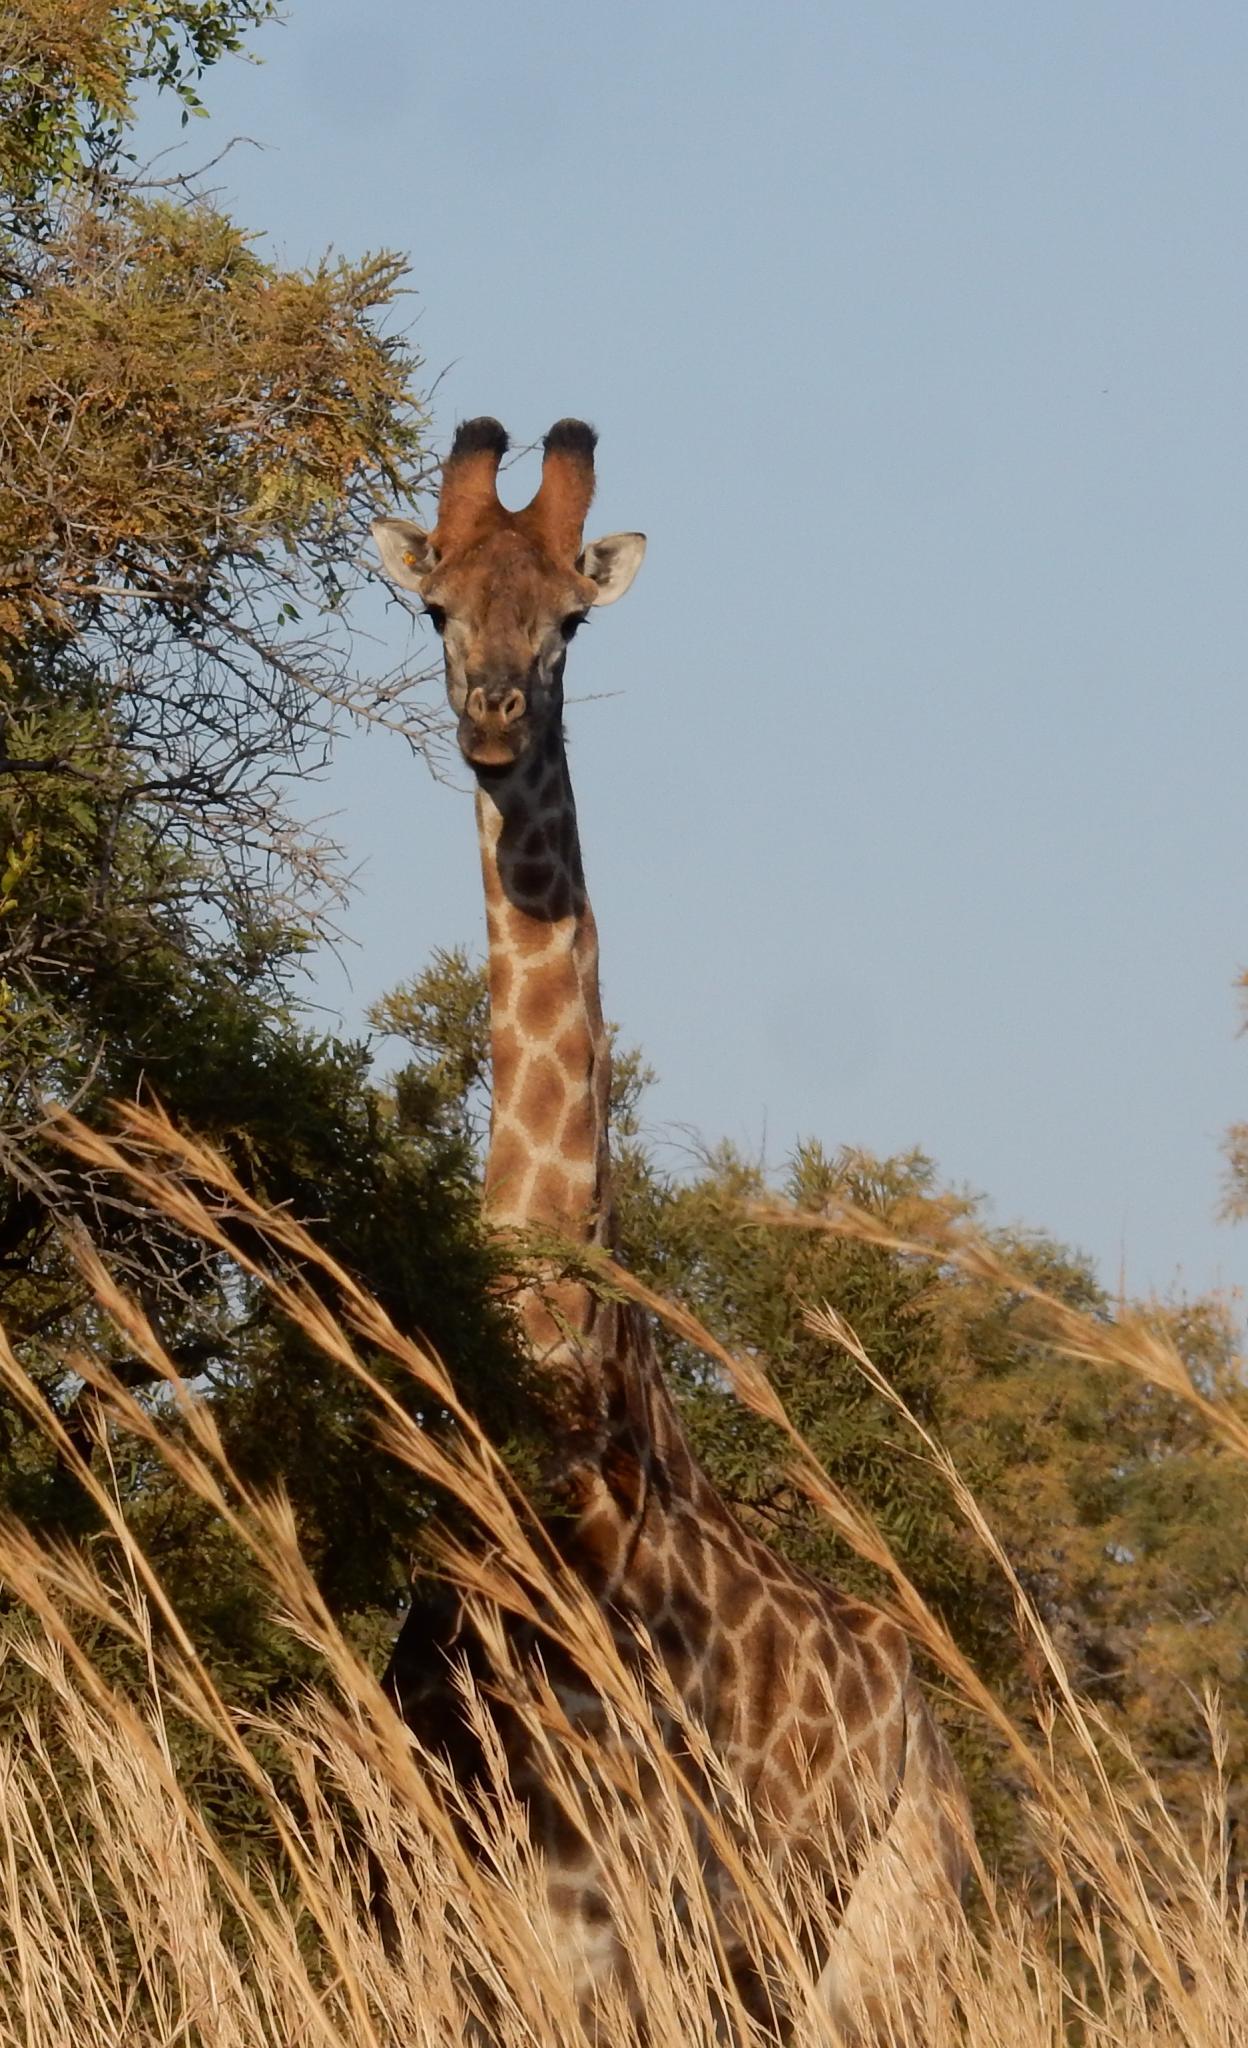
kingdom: Animalia
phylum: Chordata
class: Mammalia
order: Artiodactyla
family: Giraffidae
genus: Giraffa
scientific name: Giraffa giraffa
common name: Southern giraffe
